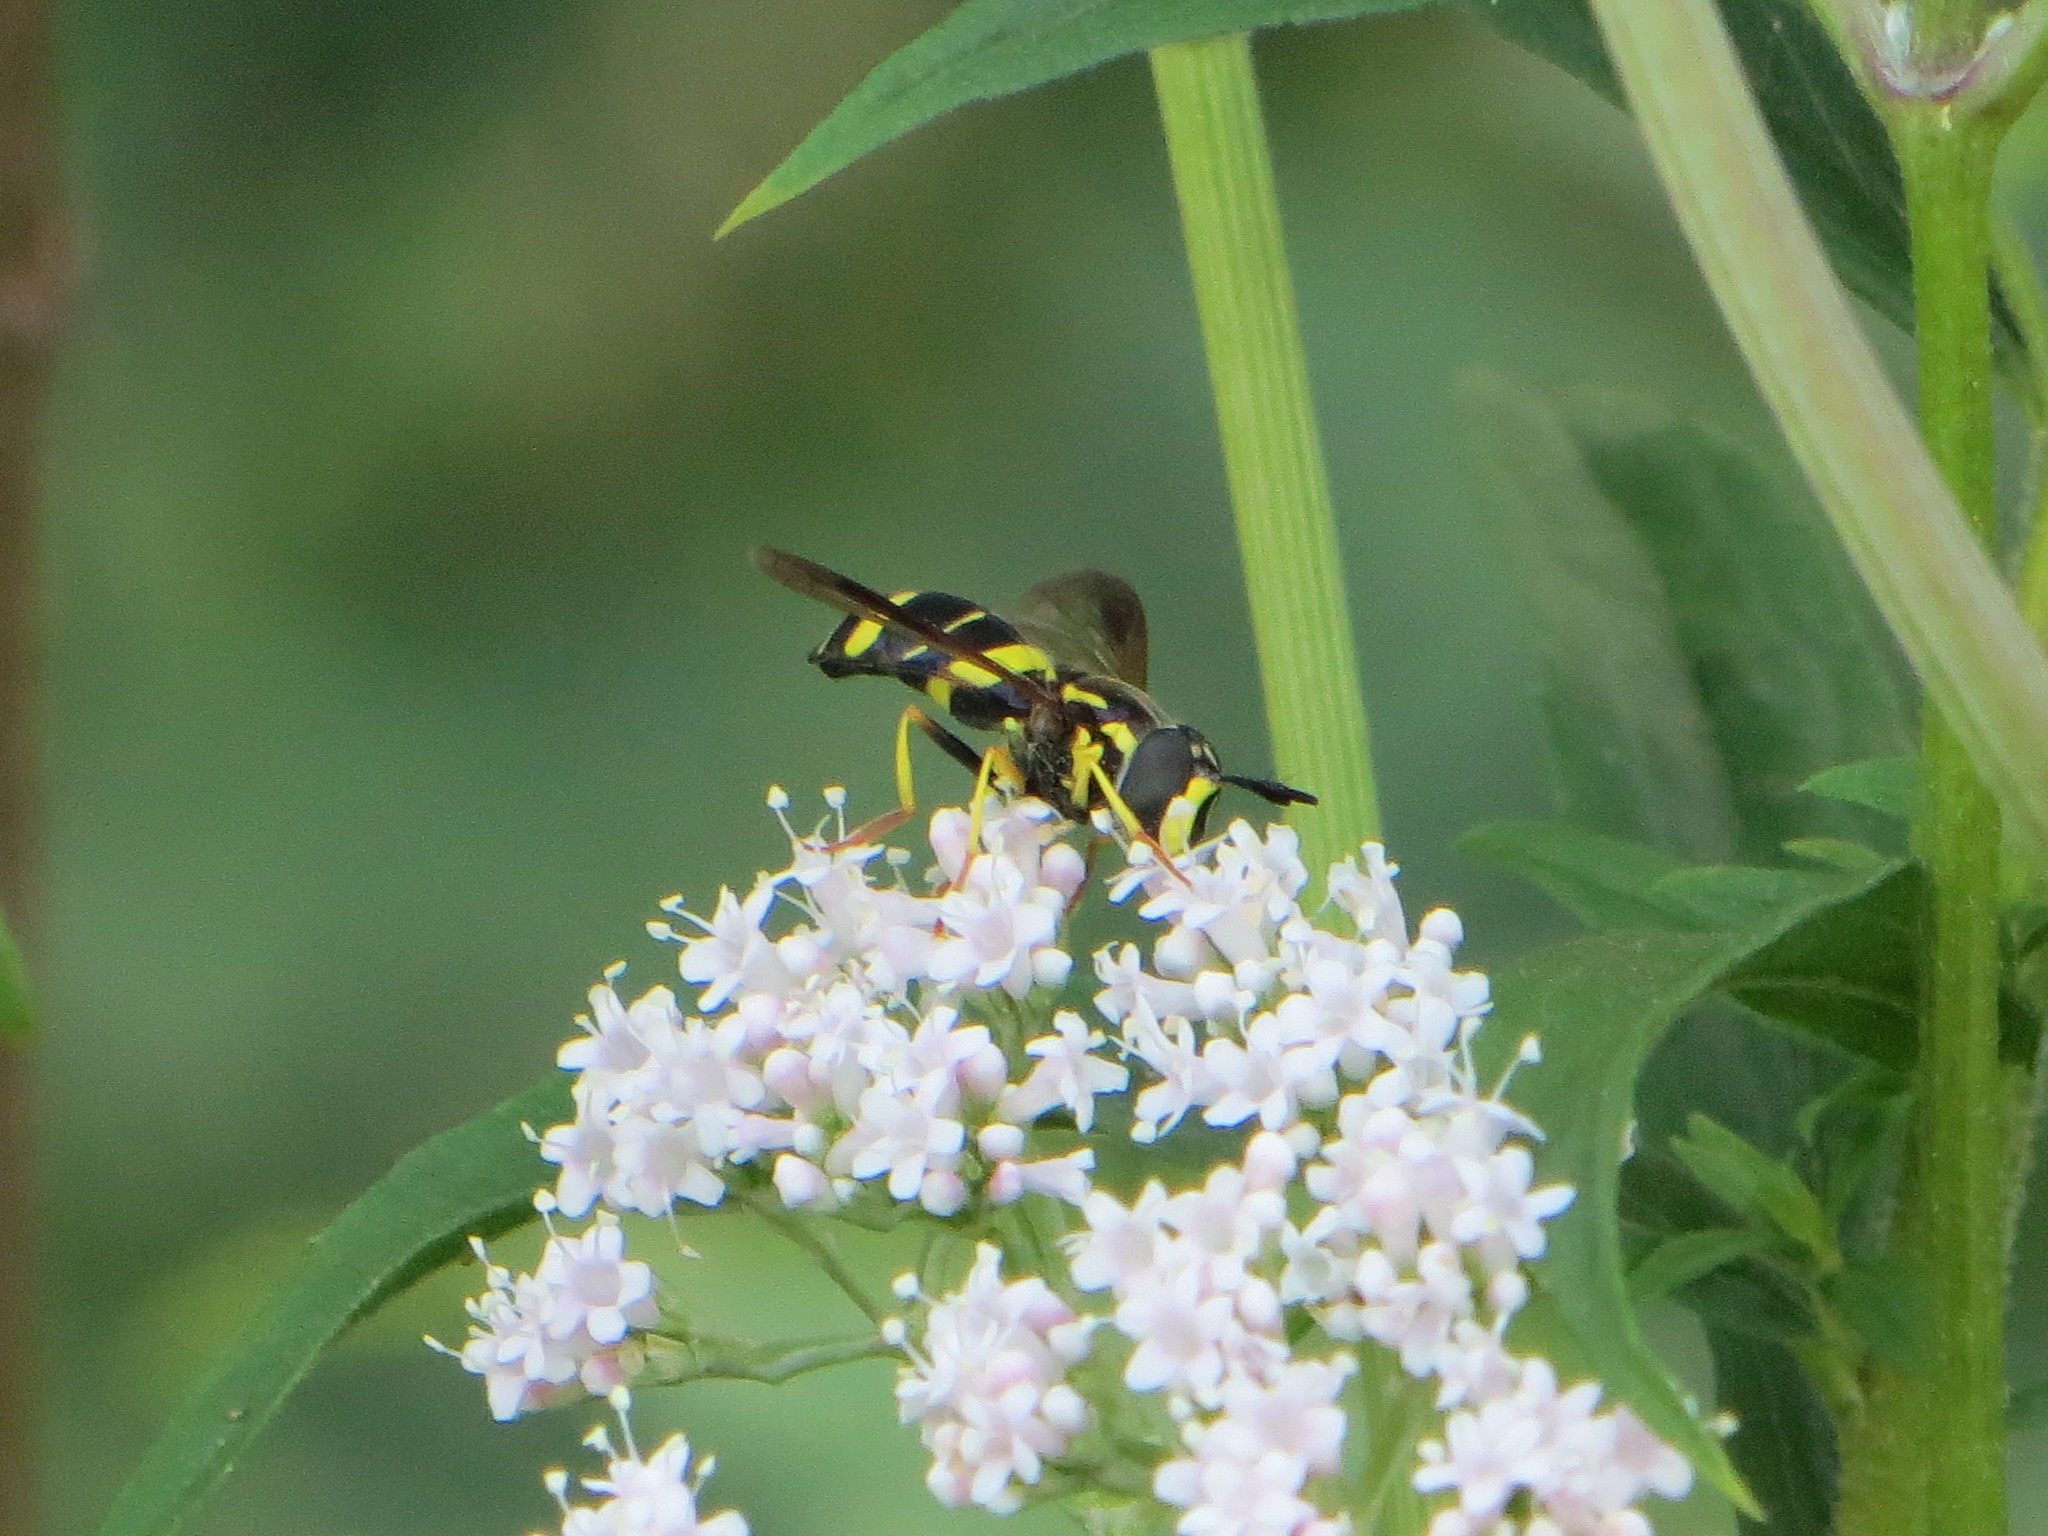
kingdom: Animalia
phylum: Arthropoda
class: Insecta
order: Diptera
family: Syrphidae
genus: Chrysotoxum
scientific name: Chrysotoxum bicincta
